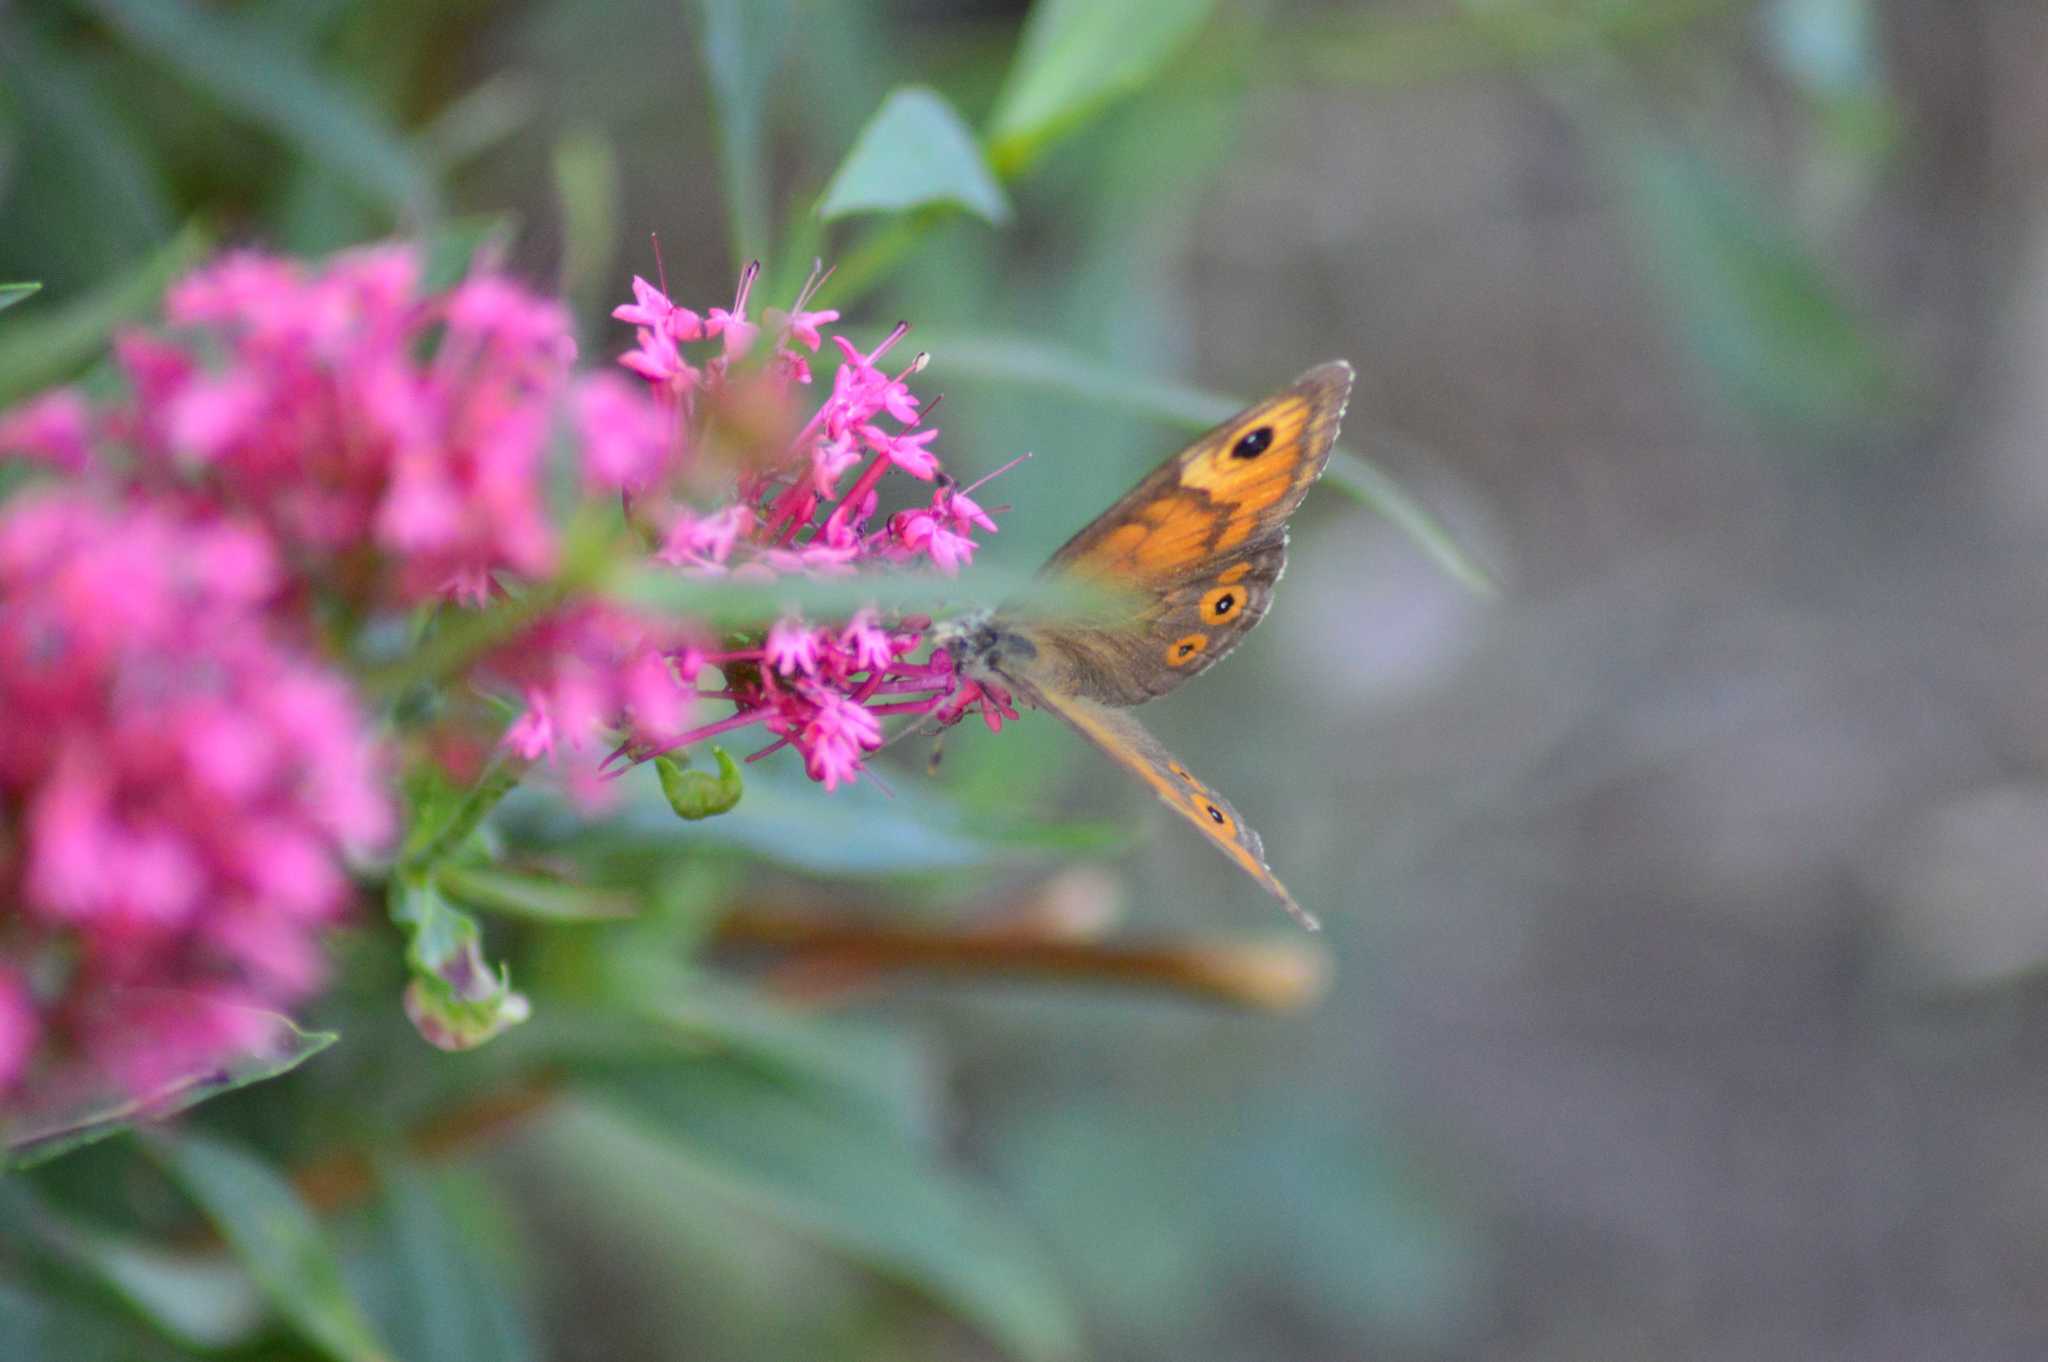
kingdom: Animalia
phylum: Arthropoda
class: Insecta
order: Lepidoptera
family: Nymphalidae
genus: Pararge
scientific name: Pararge Lasiommata maera
